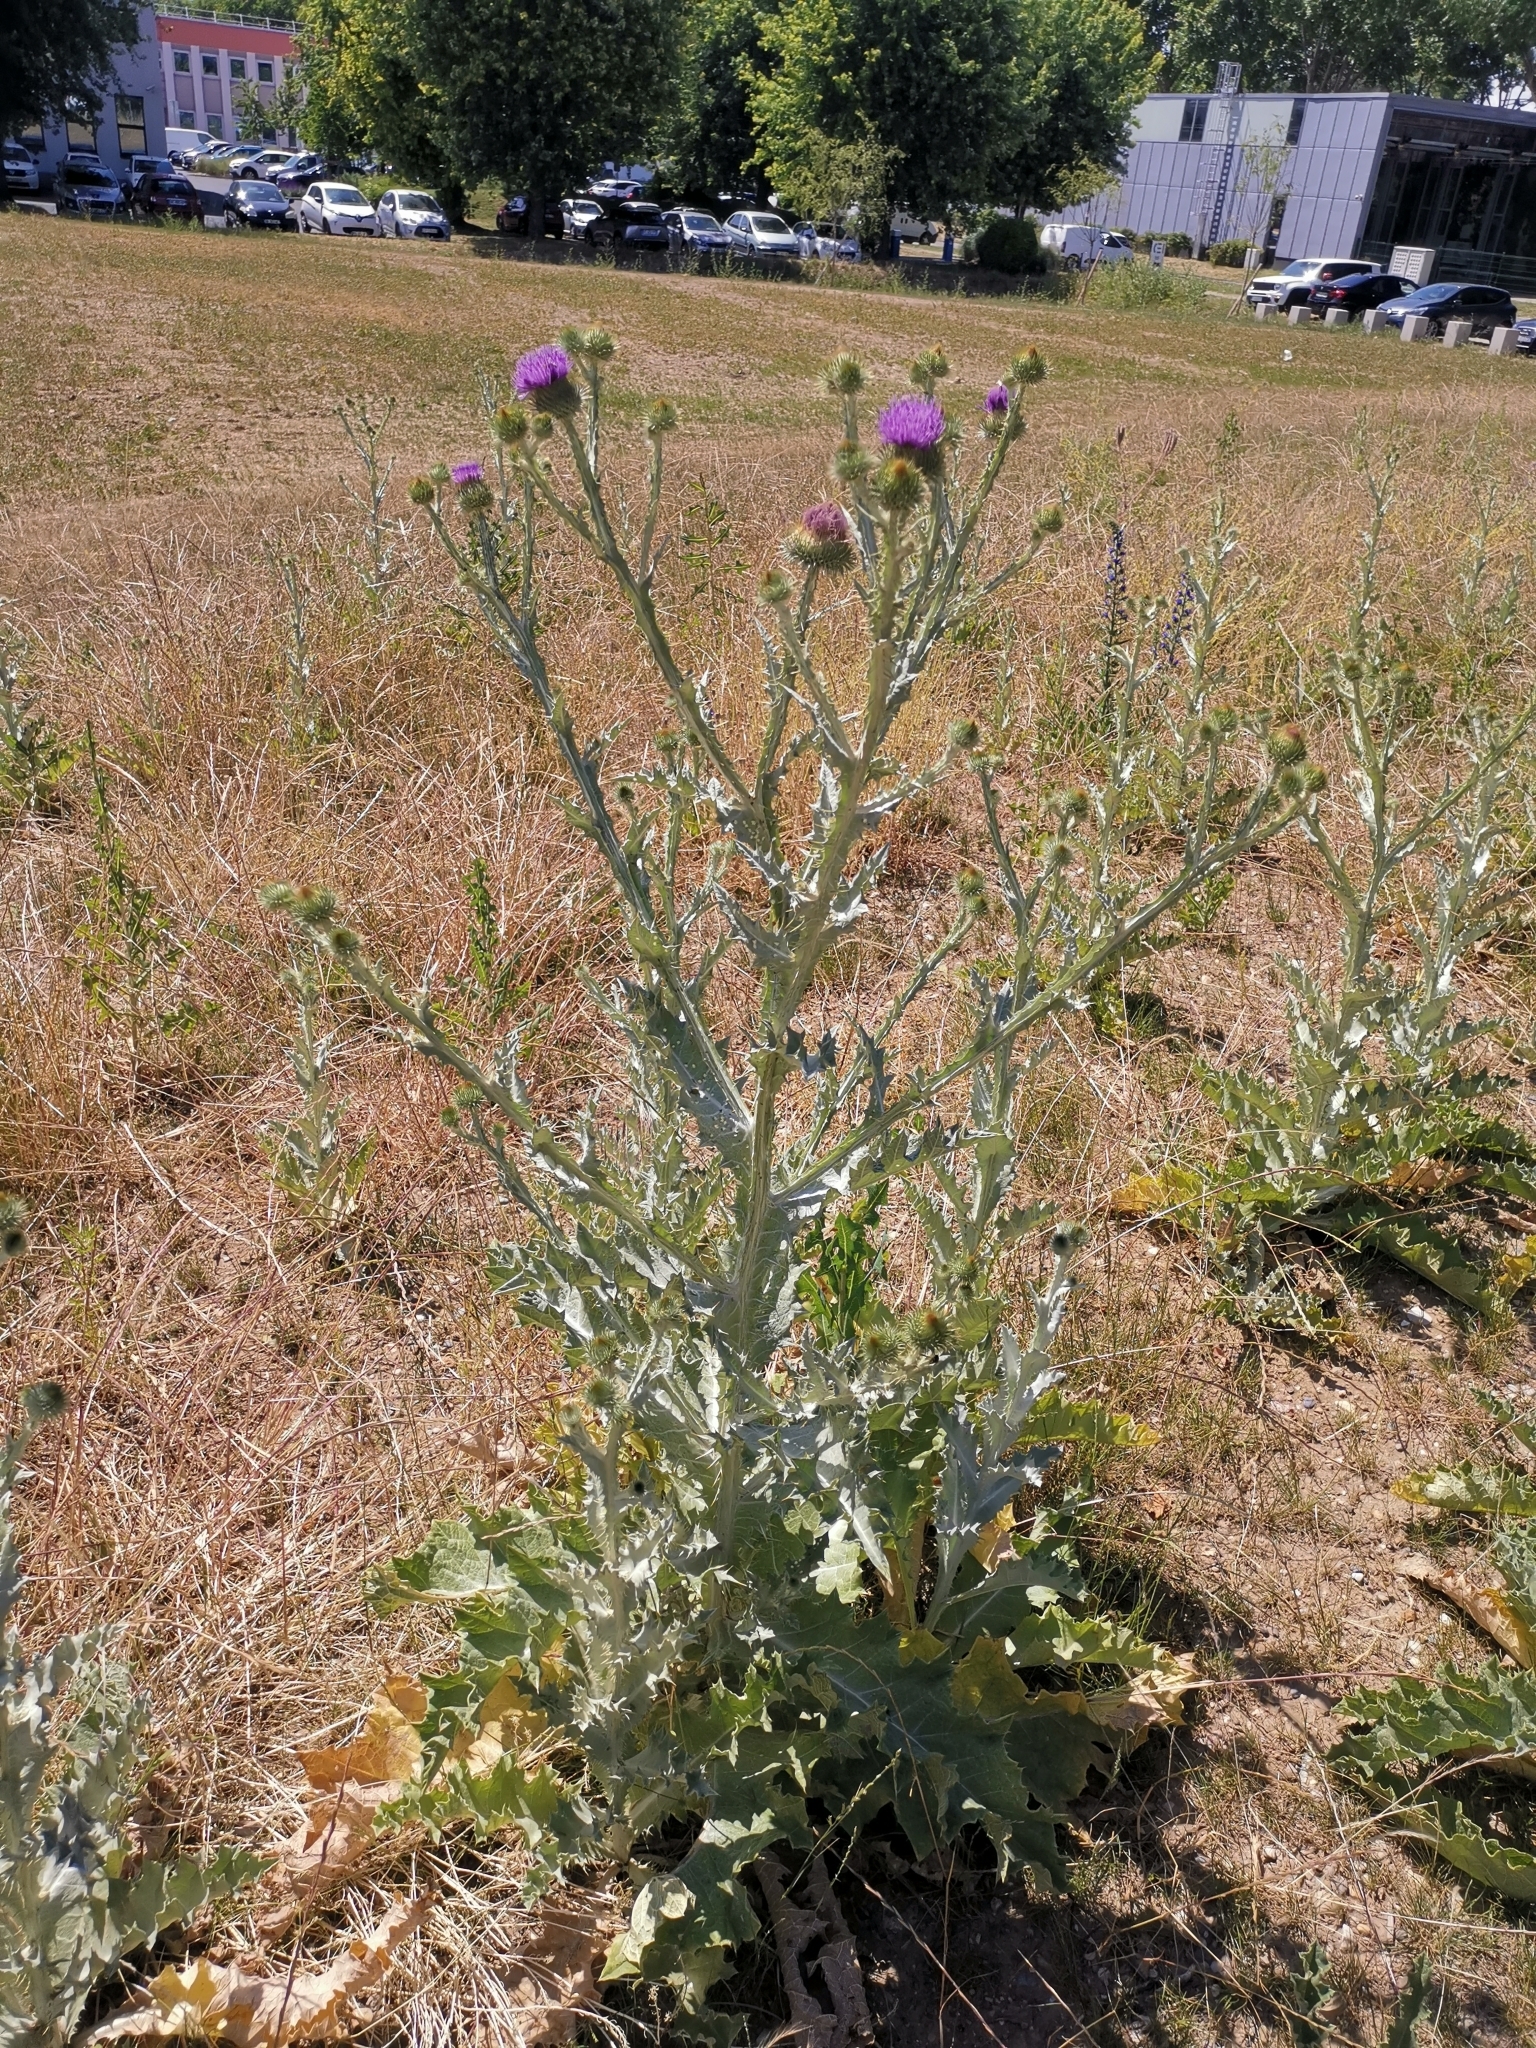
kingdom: Plantae
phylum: Tracheophyta
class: Magnoliopsida
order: Asterales
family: Asteraceae
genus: Onopordum
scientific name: Onopordum acanthium
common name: Scotch thistle
